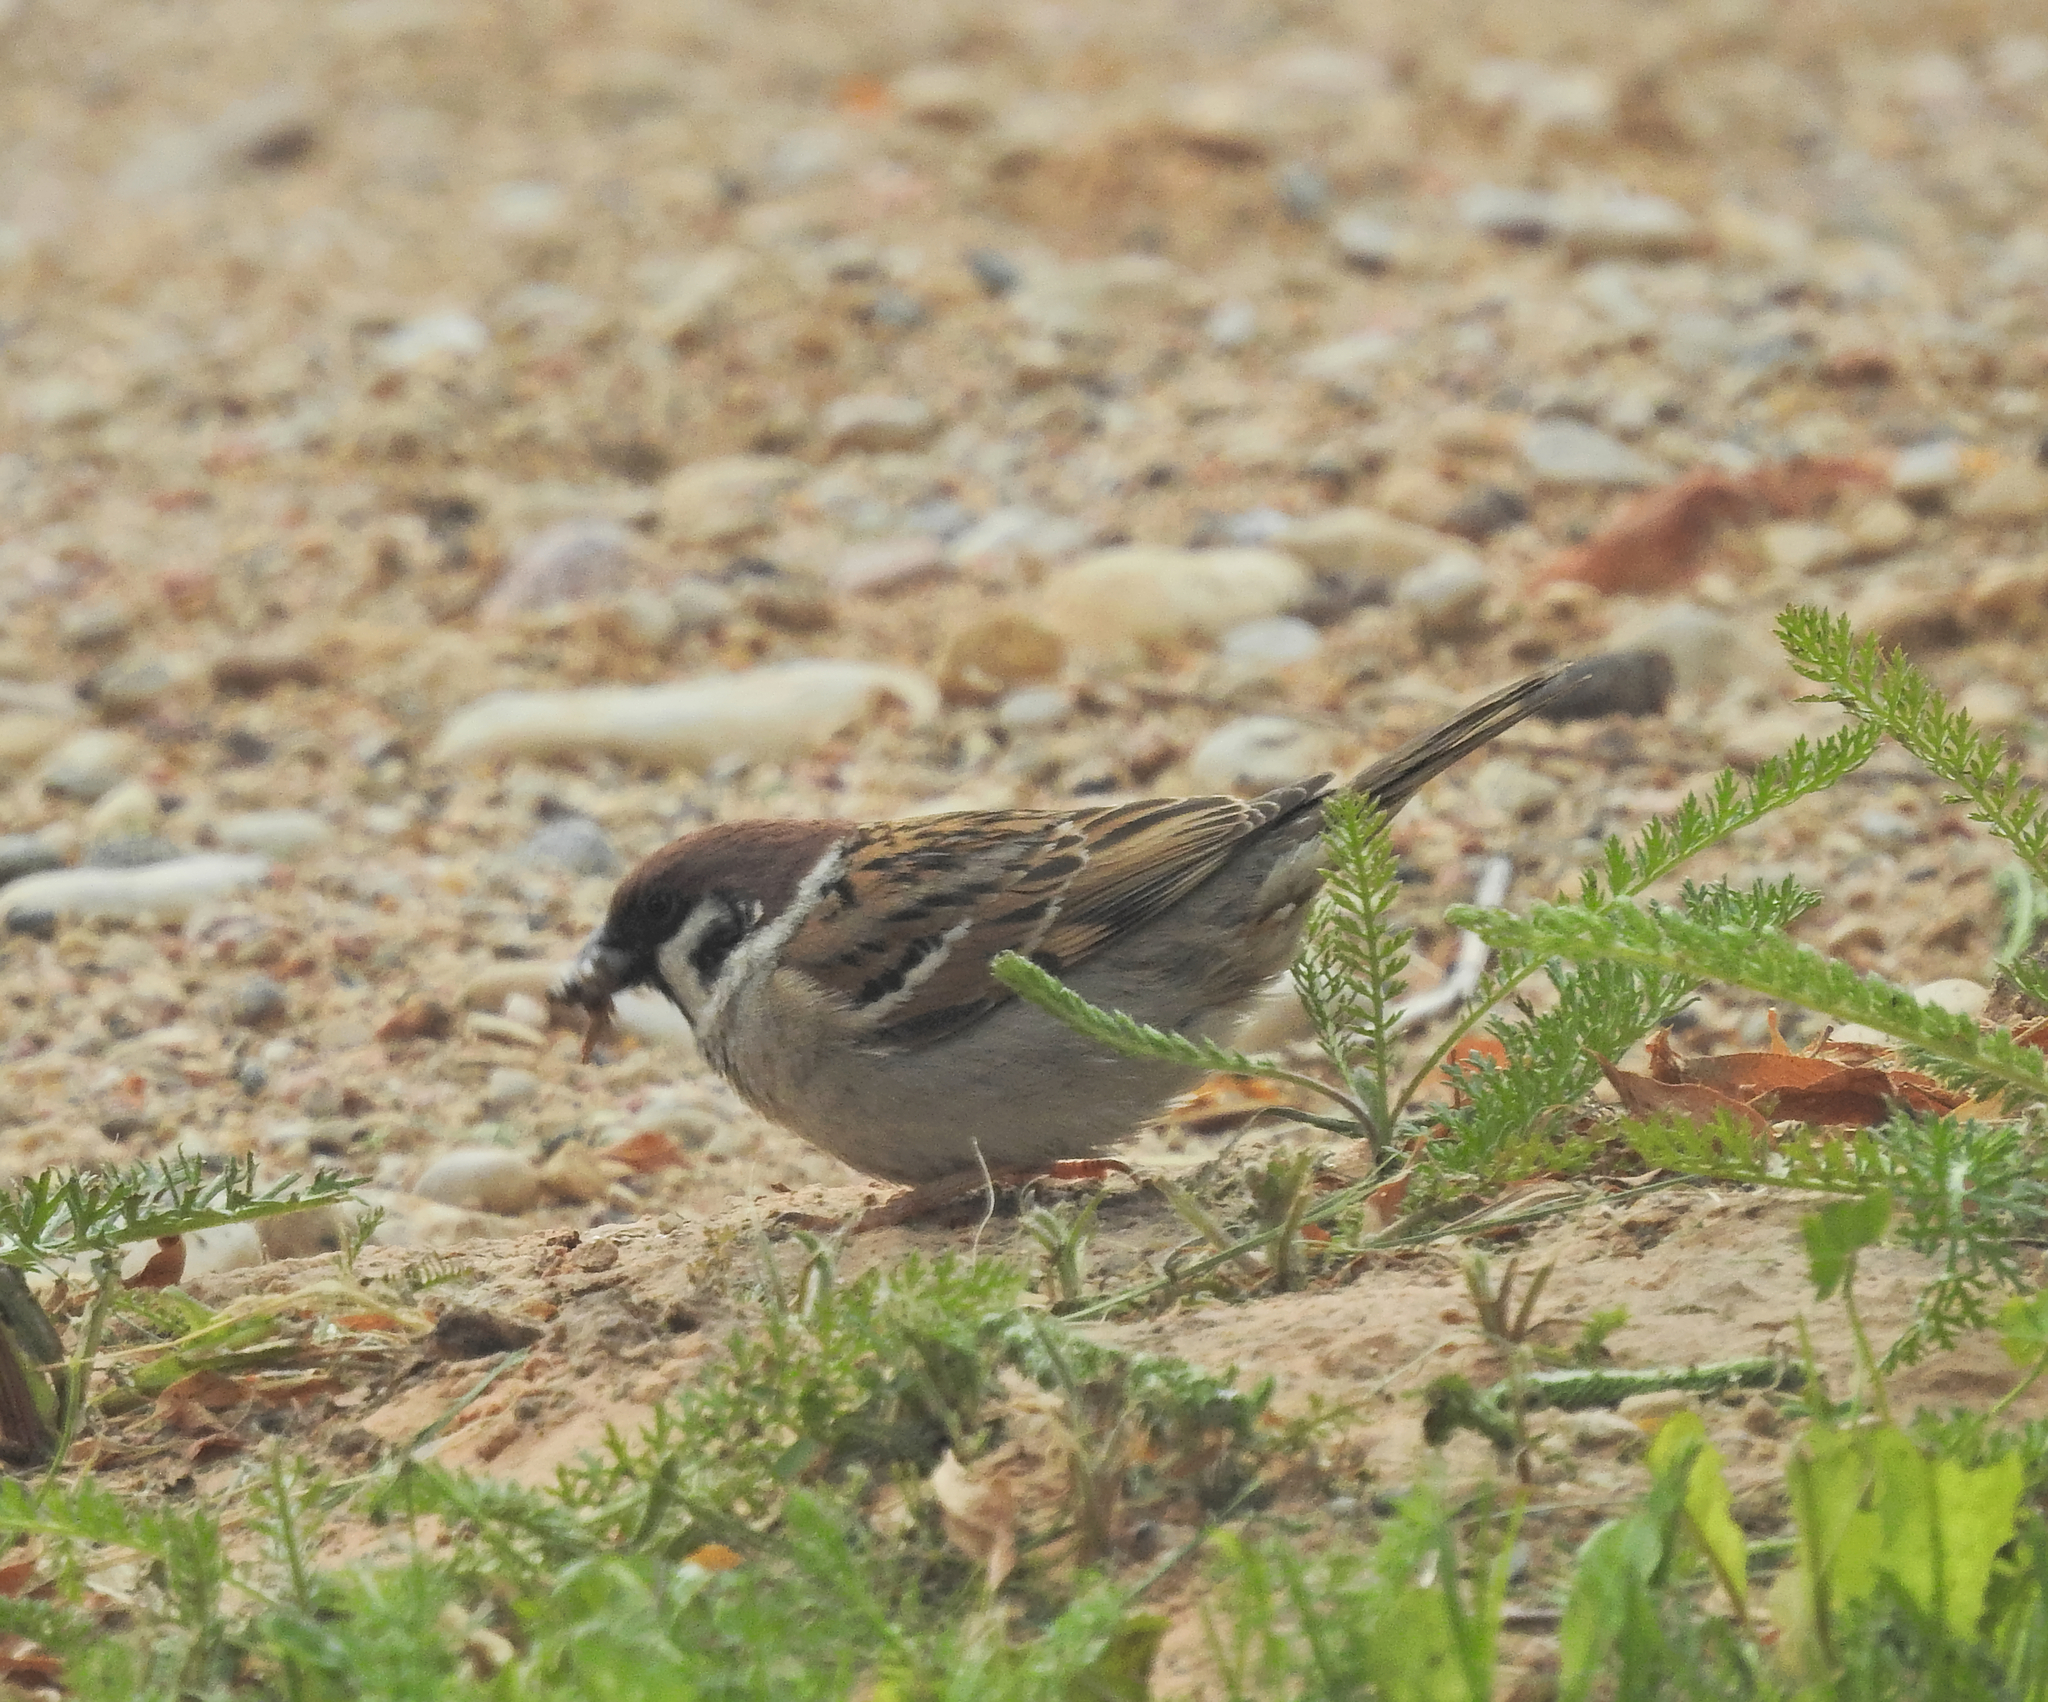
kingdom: Animalia
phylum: Chordata
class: Aves
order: Passeriformes
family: Passeridae
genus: Passer
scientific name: Passer montanus
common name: Eurasian tree sparrow
